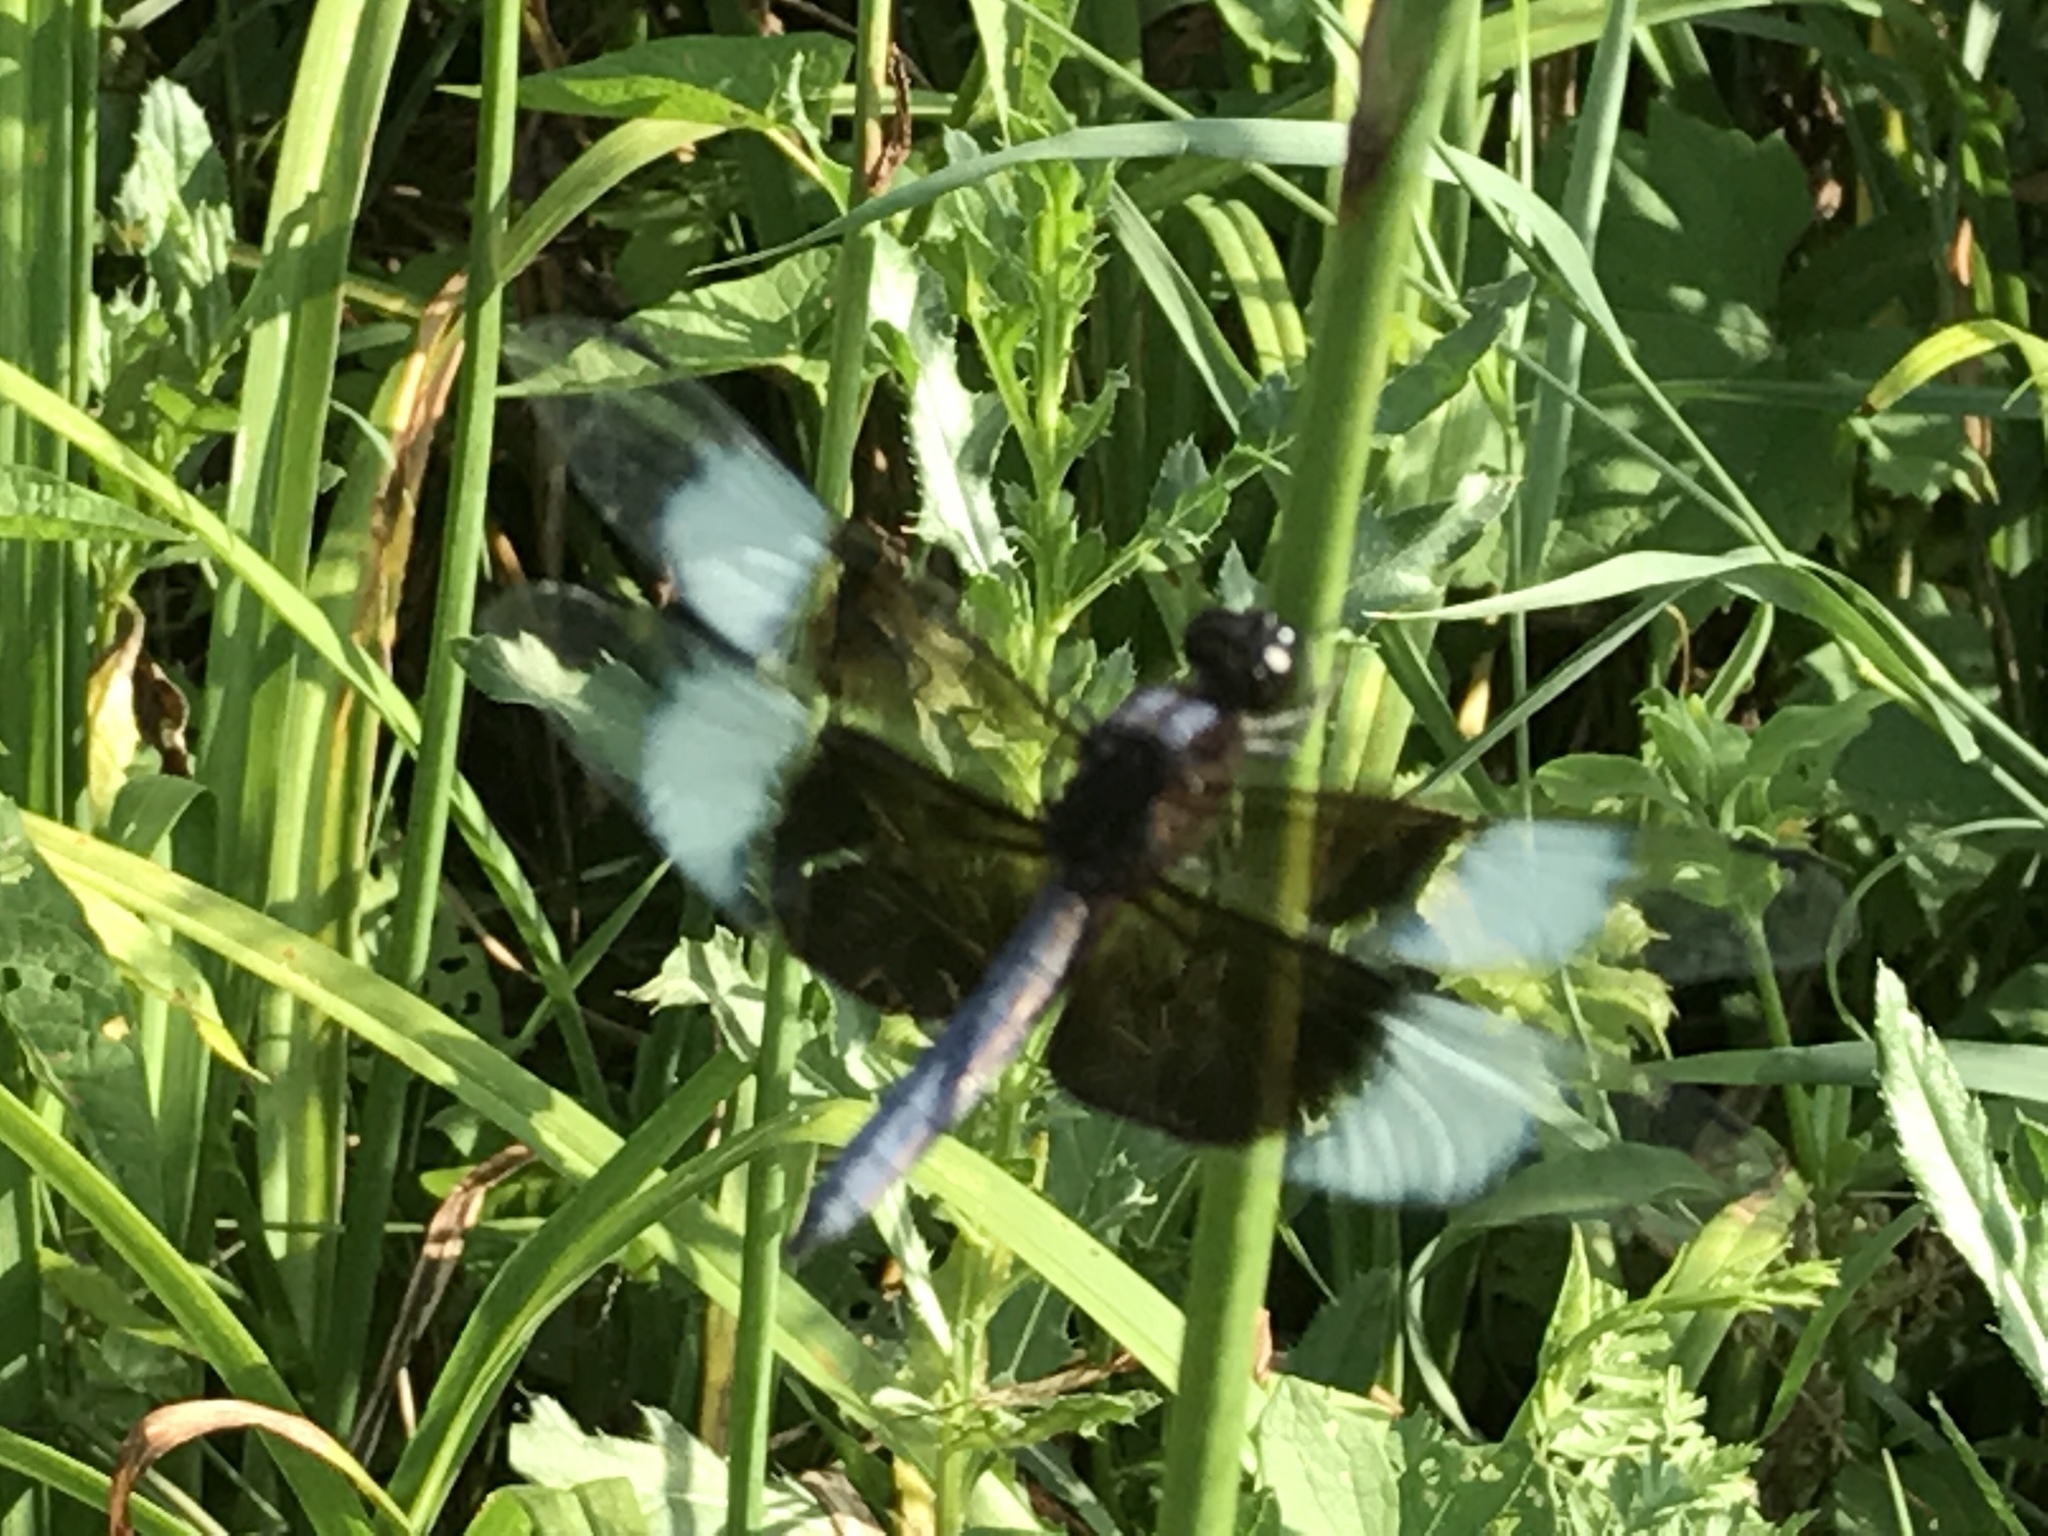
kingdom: Animalia
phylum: Arthropoda
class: Insecta
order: Odonata
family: Libellulidae
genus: Libellula
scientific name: Libellula luctuosa
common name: Widow skimmer
